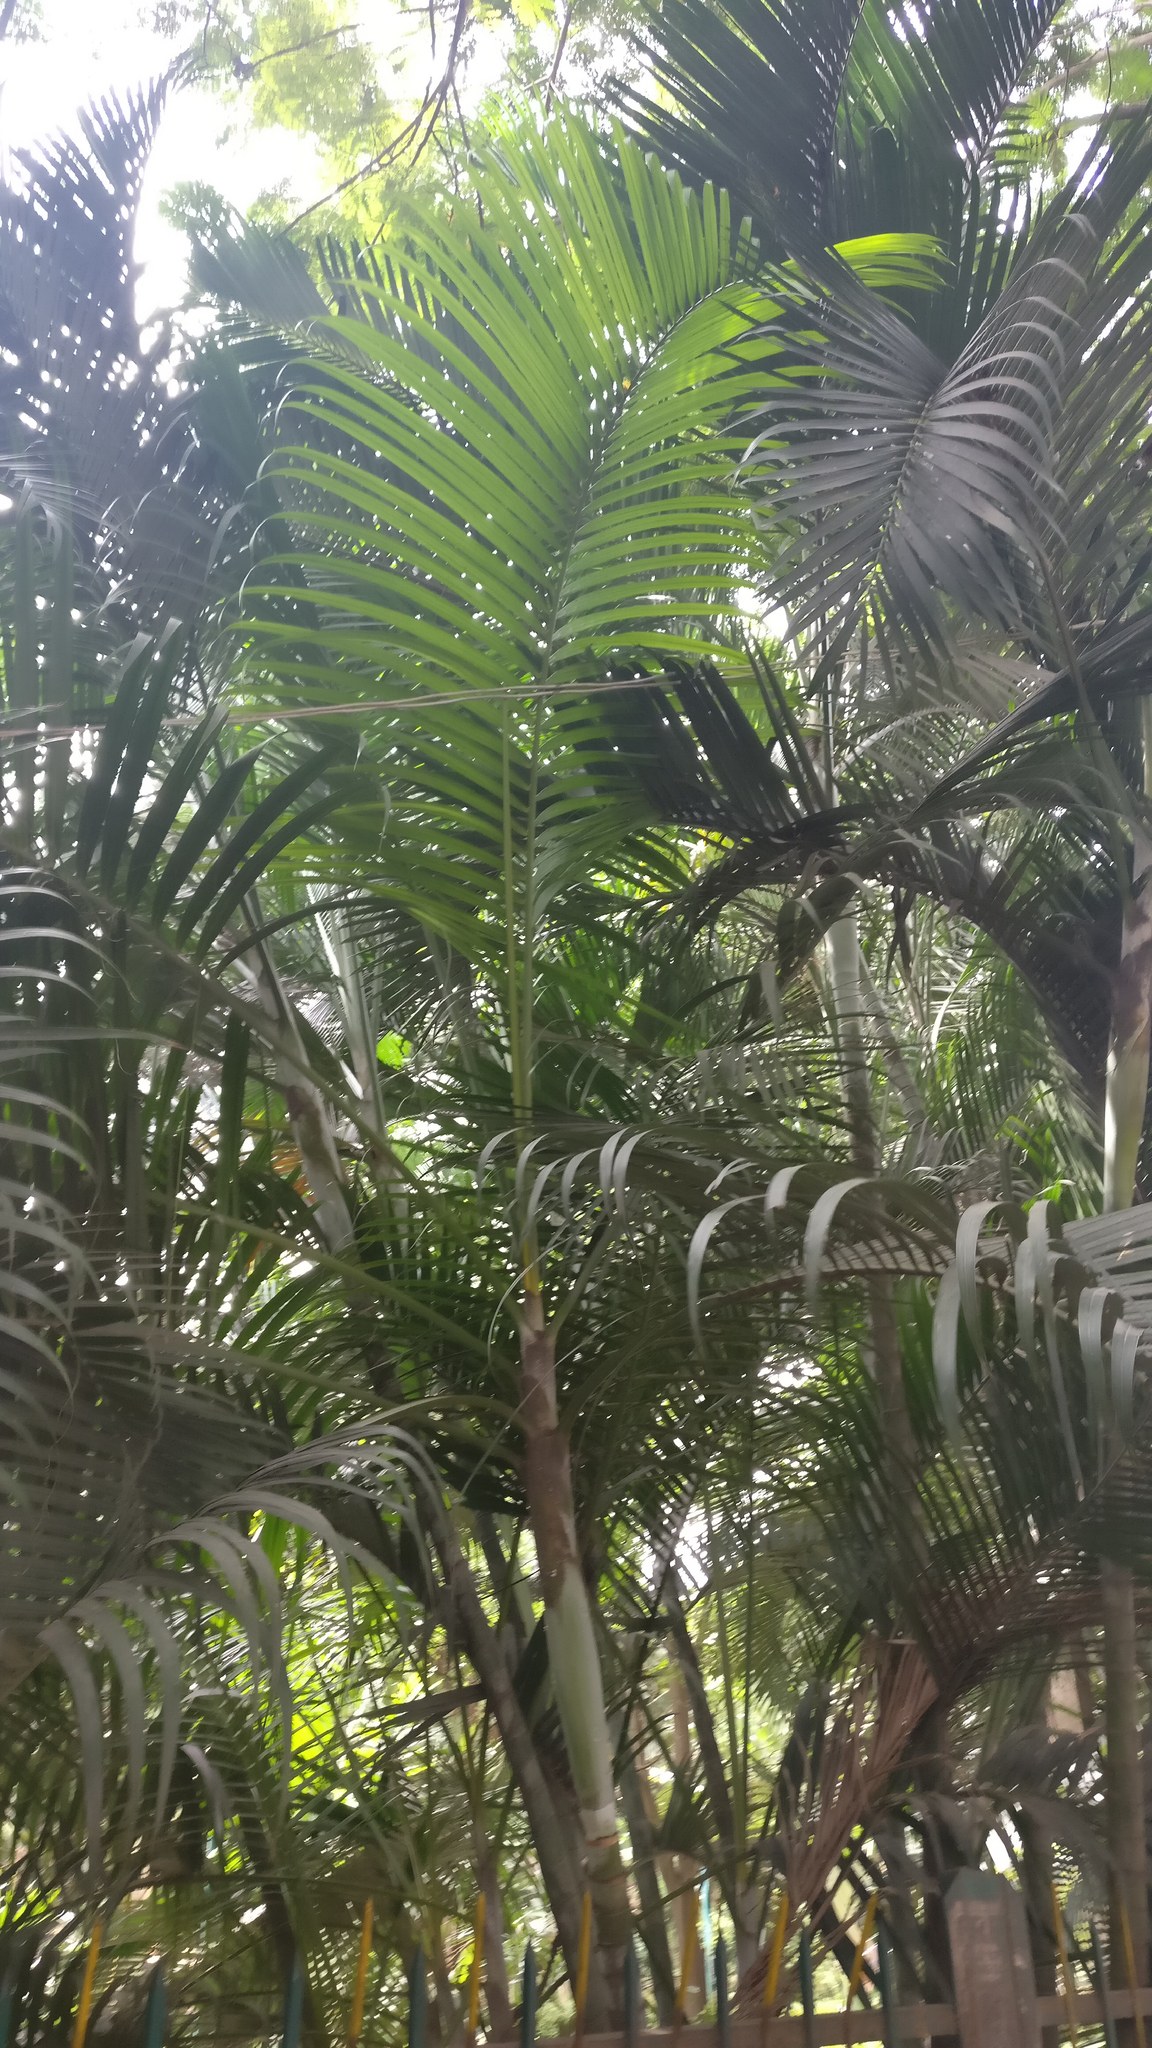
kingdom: Plantae
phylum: Tracheophyta
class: Liliopsida
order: Arecales
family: Arecaceae
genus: Dypsis
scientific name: Dypsis lutescens
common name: Yellow butterfly palm
